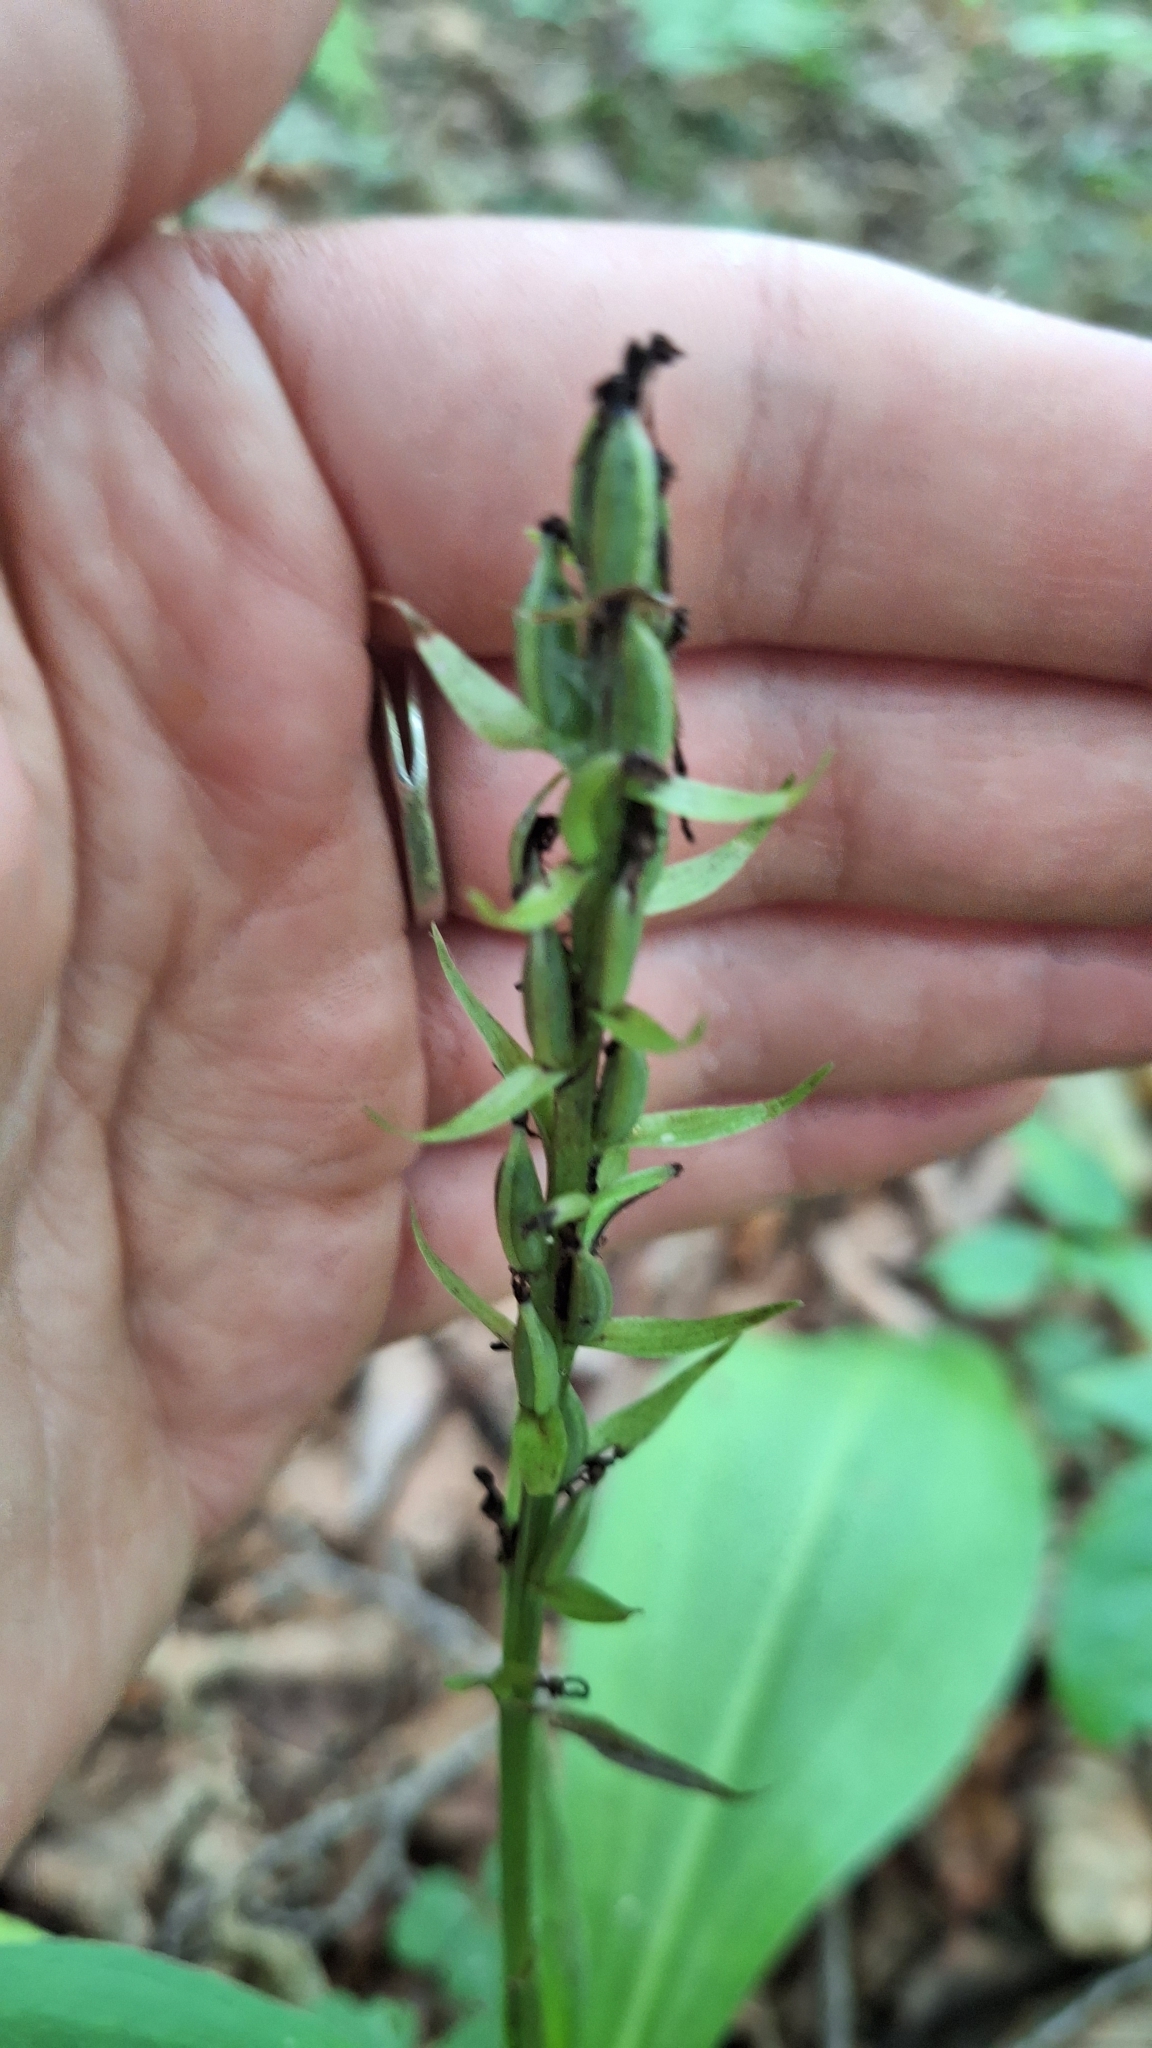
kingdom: Plantae
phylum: Tracheophyta
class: Liliopsida
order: Asparagales
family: Orchidaceae
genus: Platanthera
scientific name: Platanthera fuscescens
